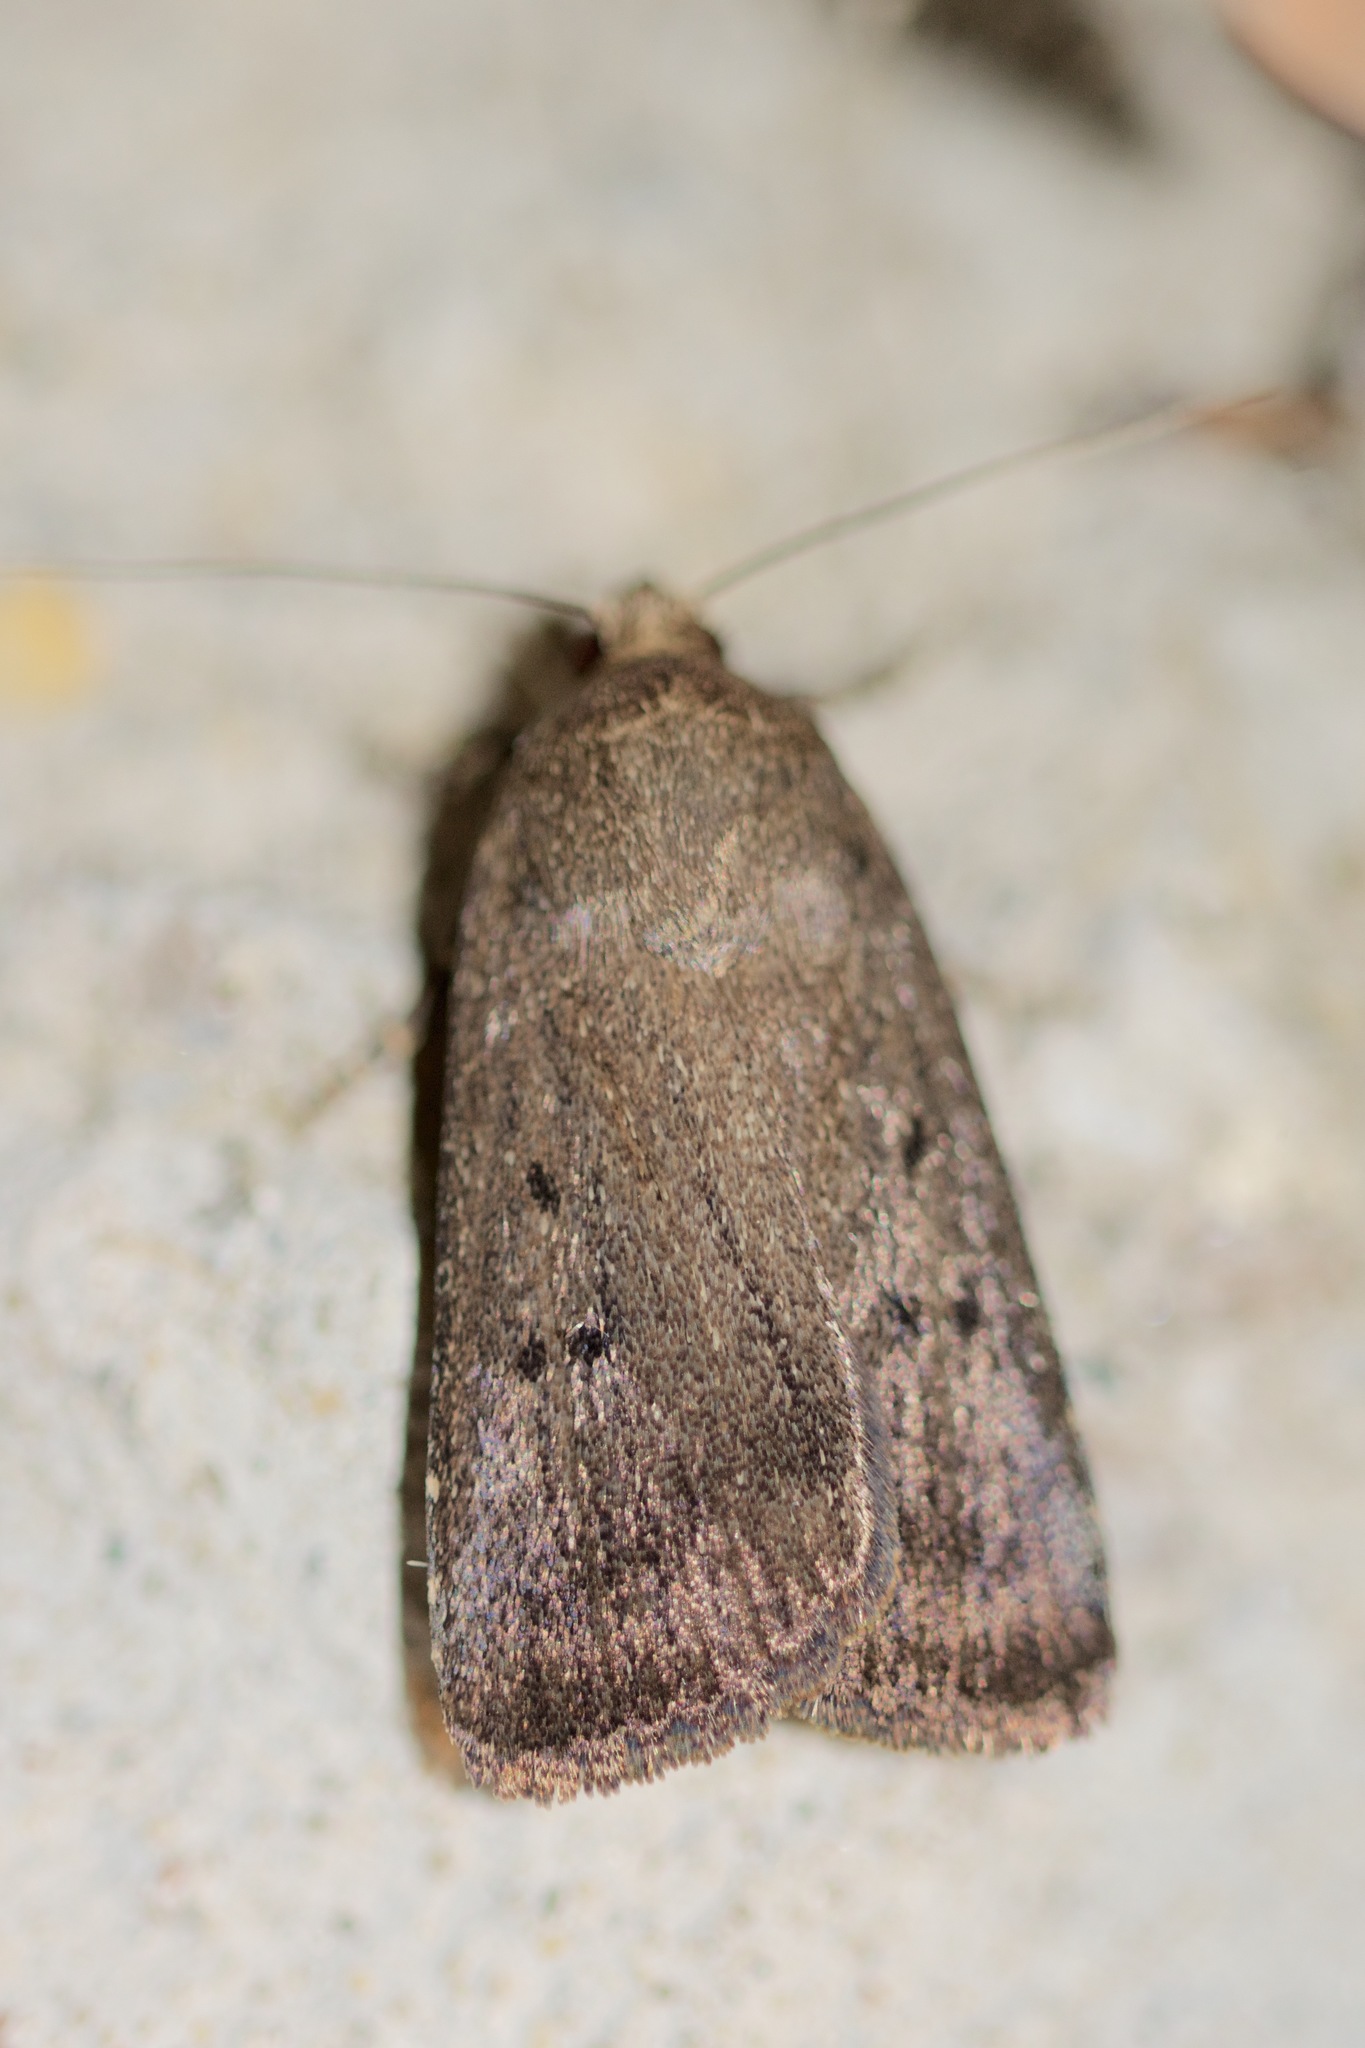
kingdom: Animalia
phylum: Arthropoda
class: Insecta
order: Lepidoptera
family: Noctuidae
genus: Amphipyra
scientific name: Amphipyra tragopoginis
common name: Mouse moth
